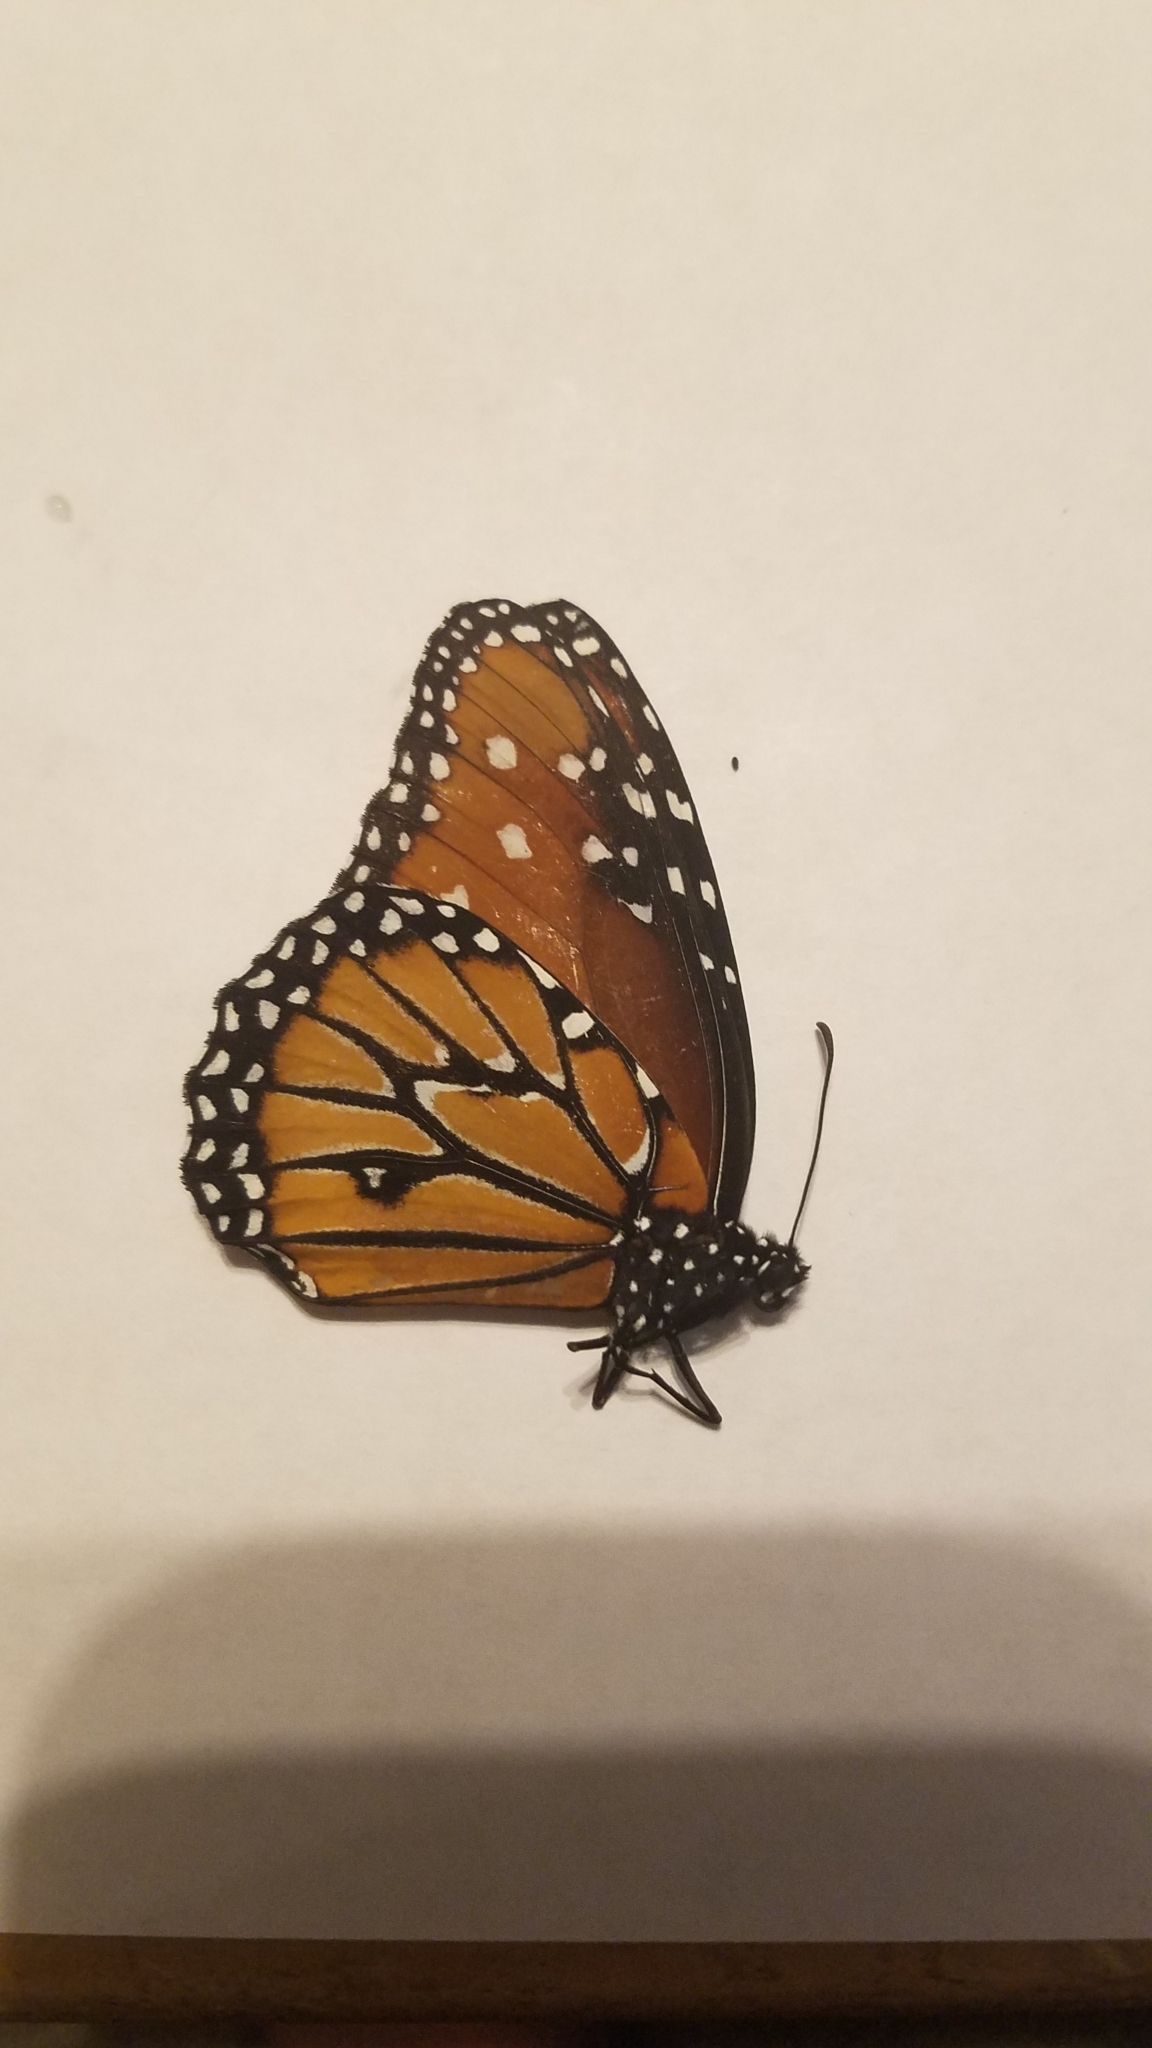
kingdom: Animalia
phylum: Arthropoda
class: Insecta
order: Lepidoptera
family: Nymphalidae
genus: Danaus
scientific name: Danaus gilippus
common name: Queen
